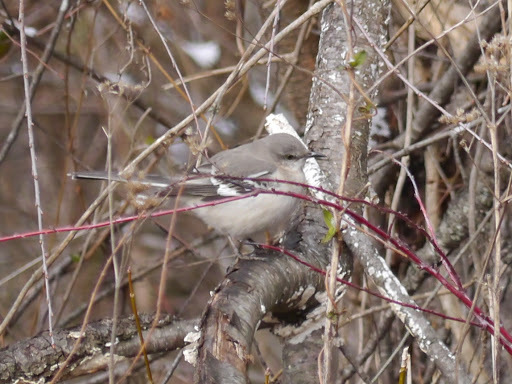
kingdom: Animalia
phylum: Chordata
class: Aves
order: Passeriformes
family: Mimidae
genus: Mimus
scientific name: Mimus polyglottos
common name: Northern mockingbird
